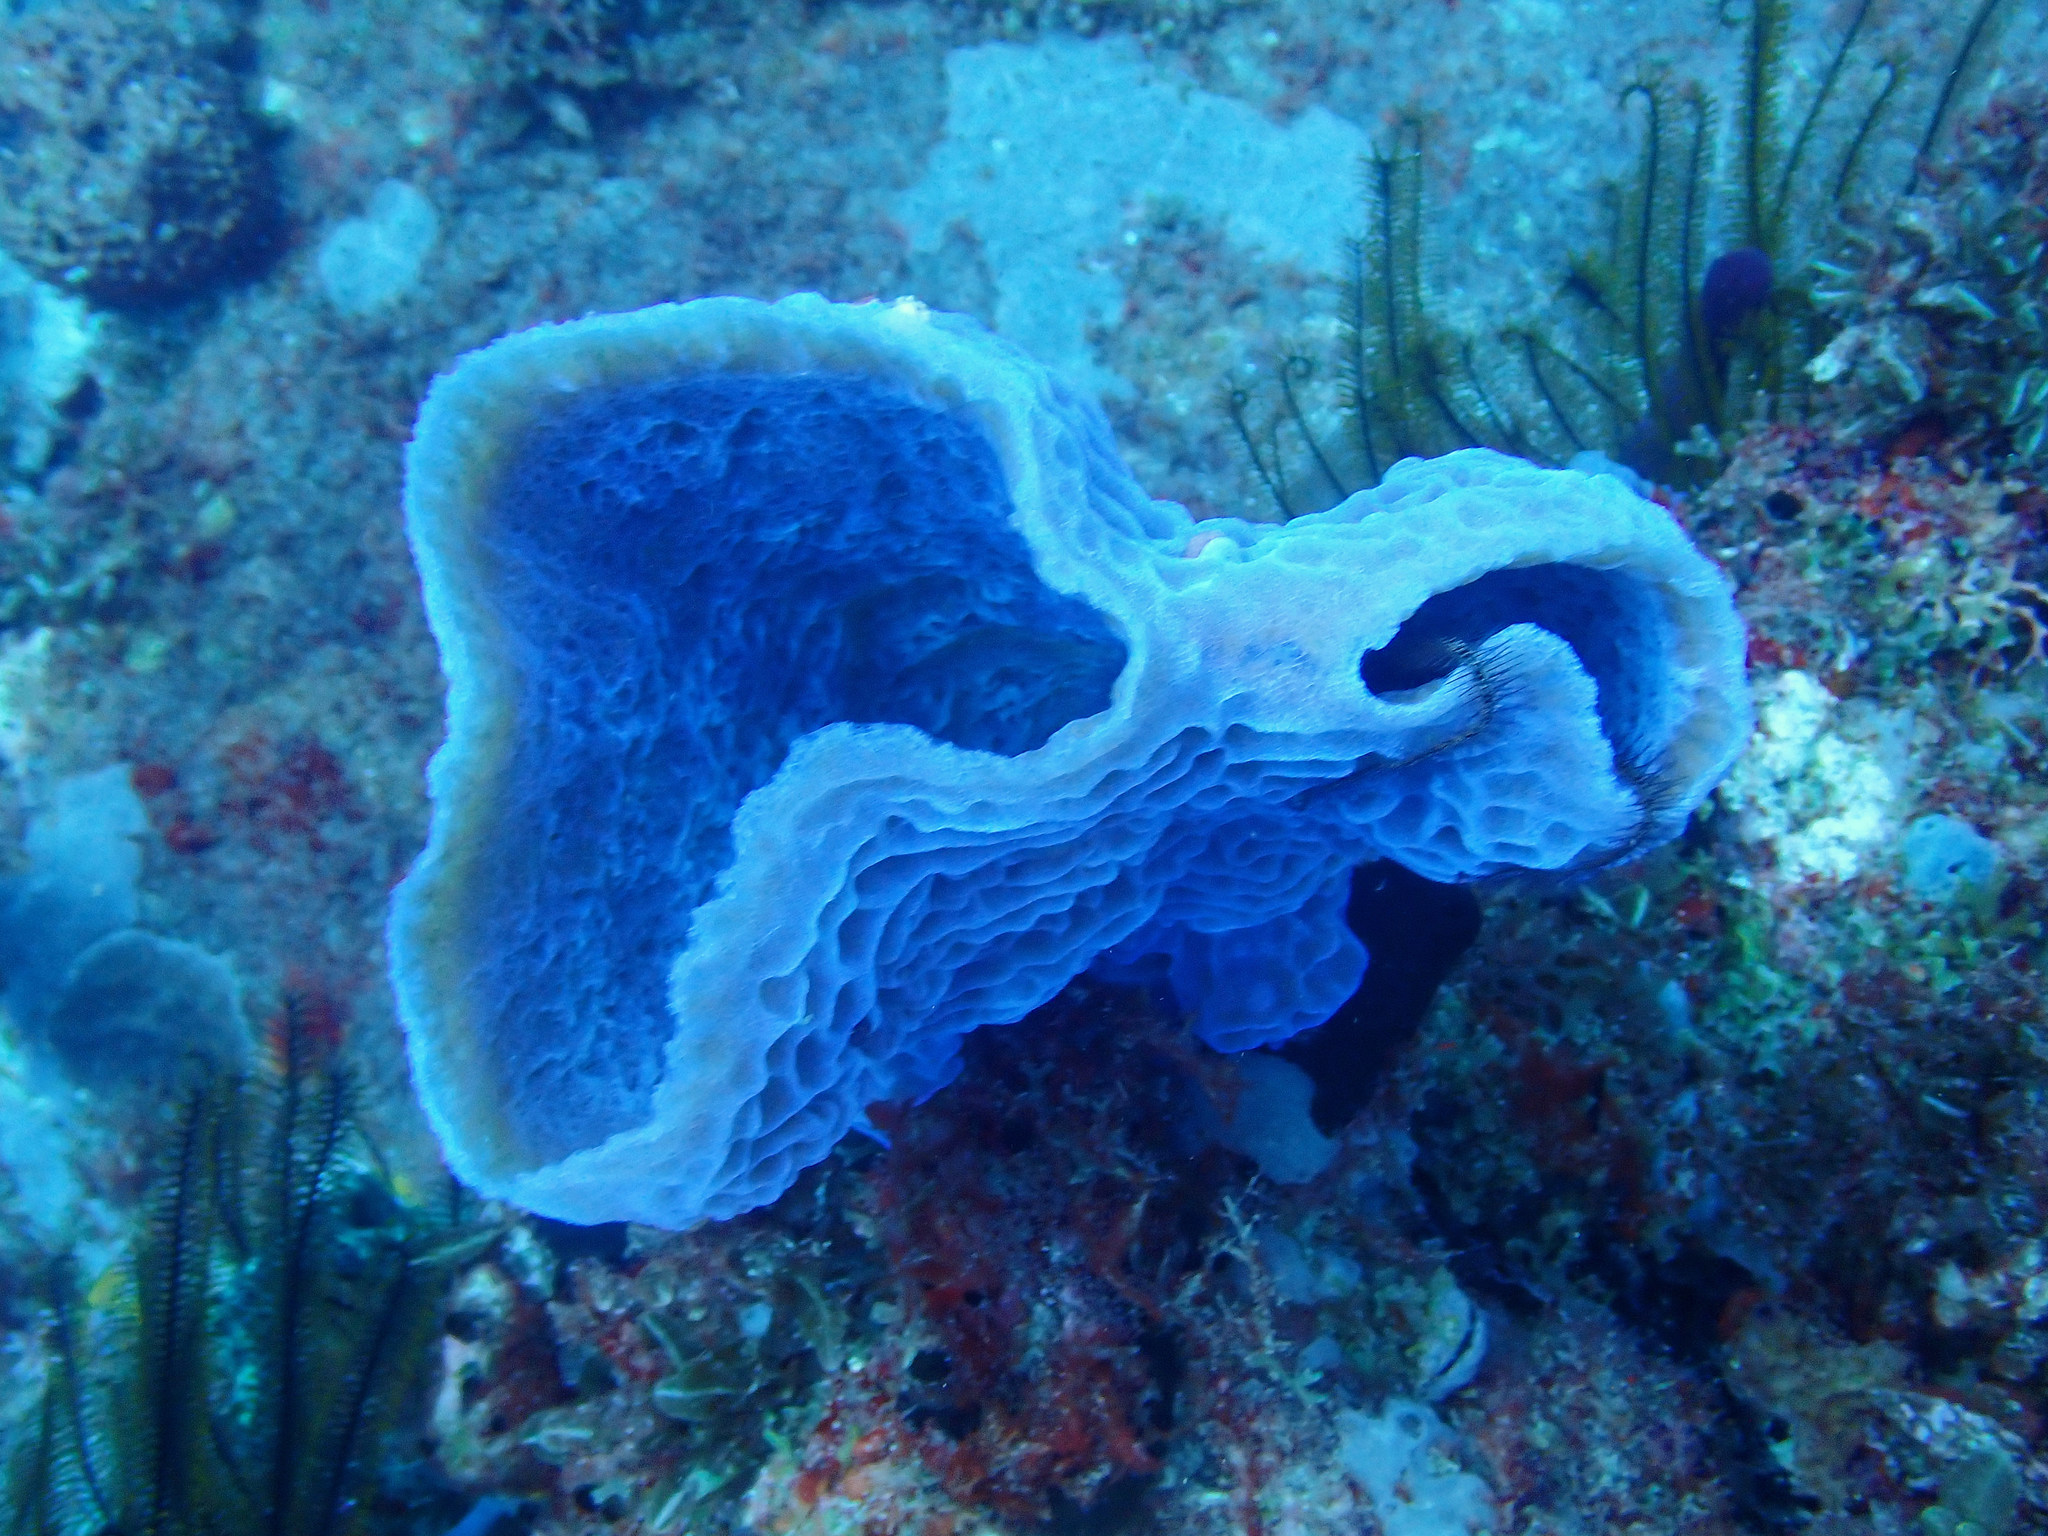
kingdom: Animalia
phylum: Porifera
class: Demospongiae
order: Haplosclerida
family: Callyspongiidae
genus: Callyspongia
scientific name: Callyspongia plicifera
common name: Azure vase sponge
